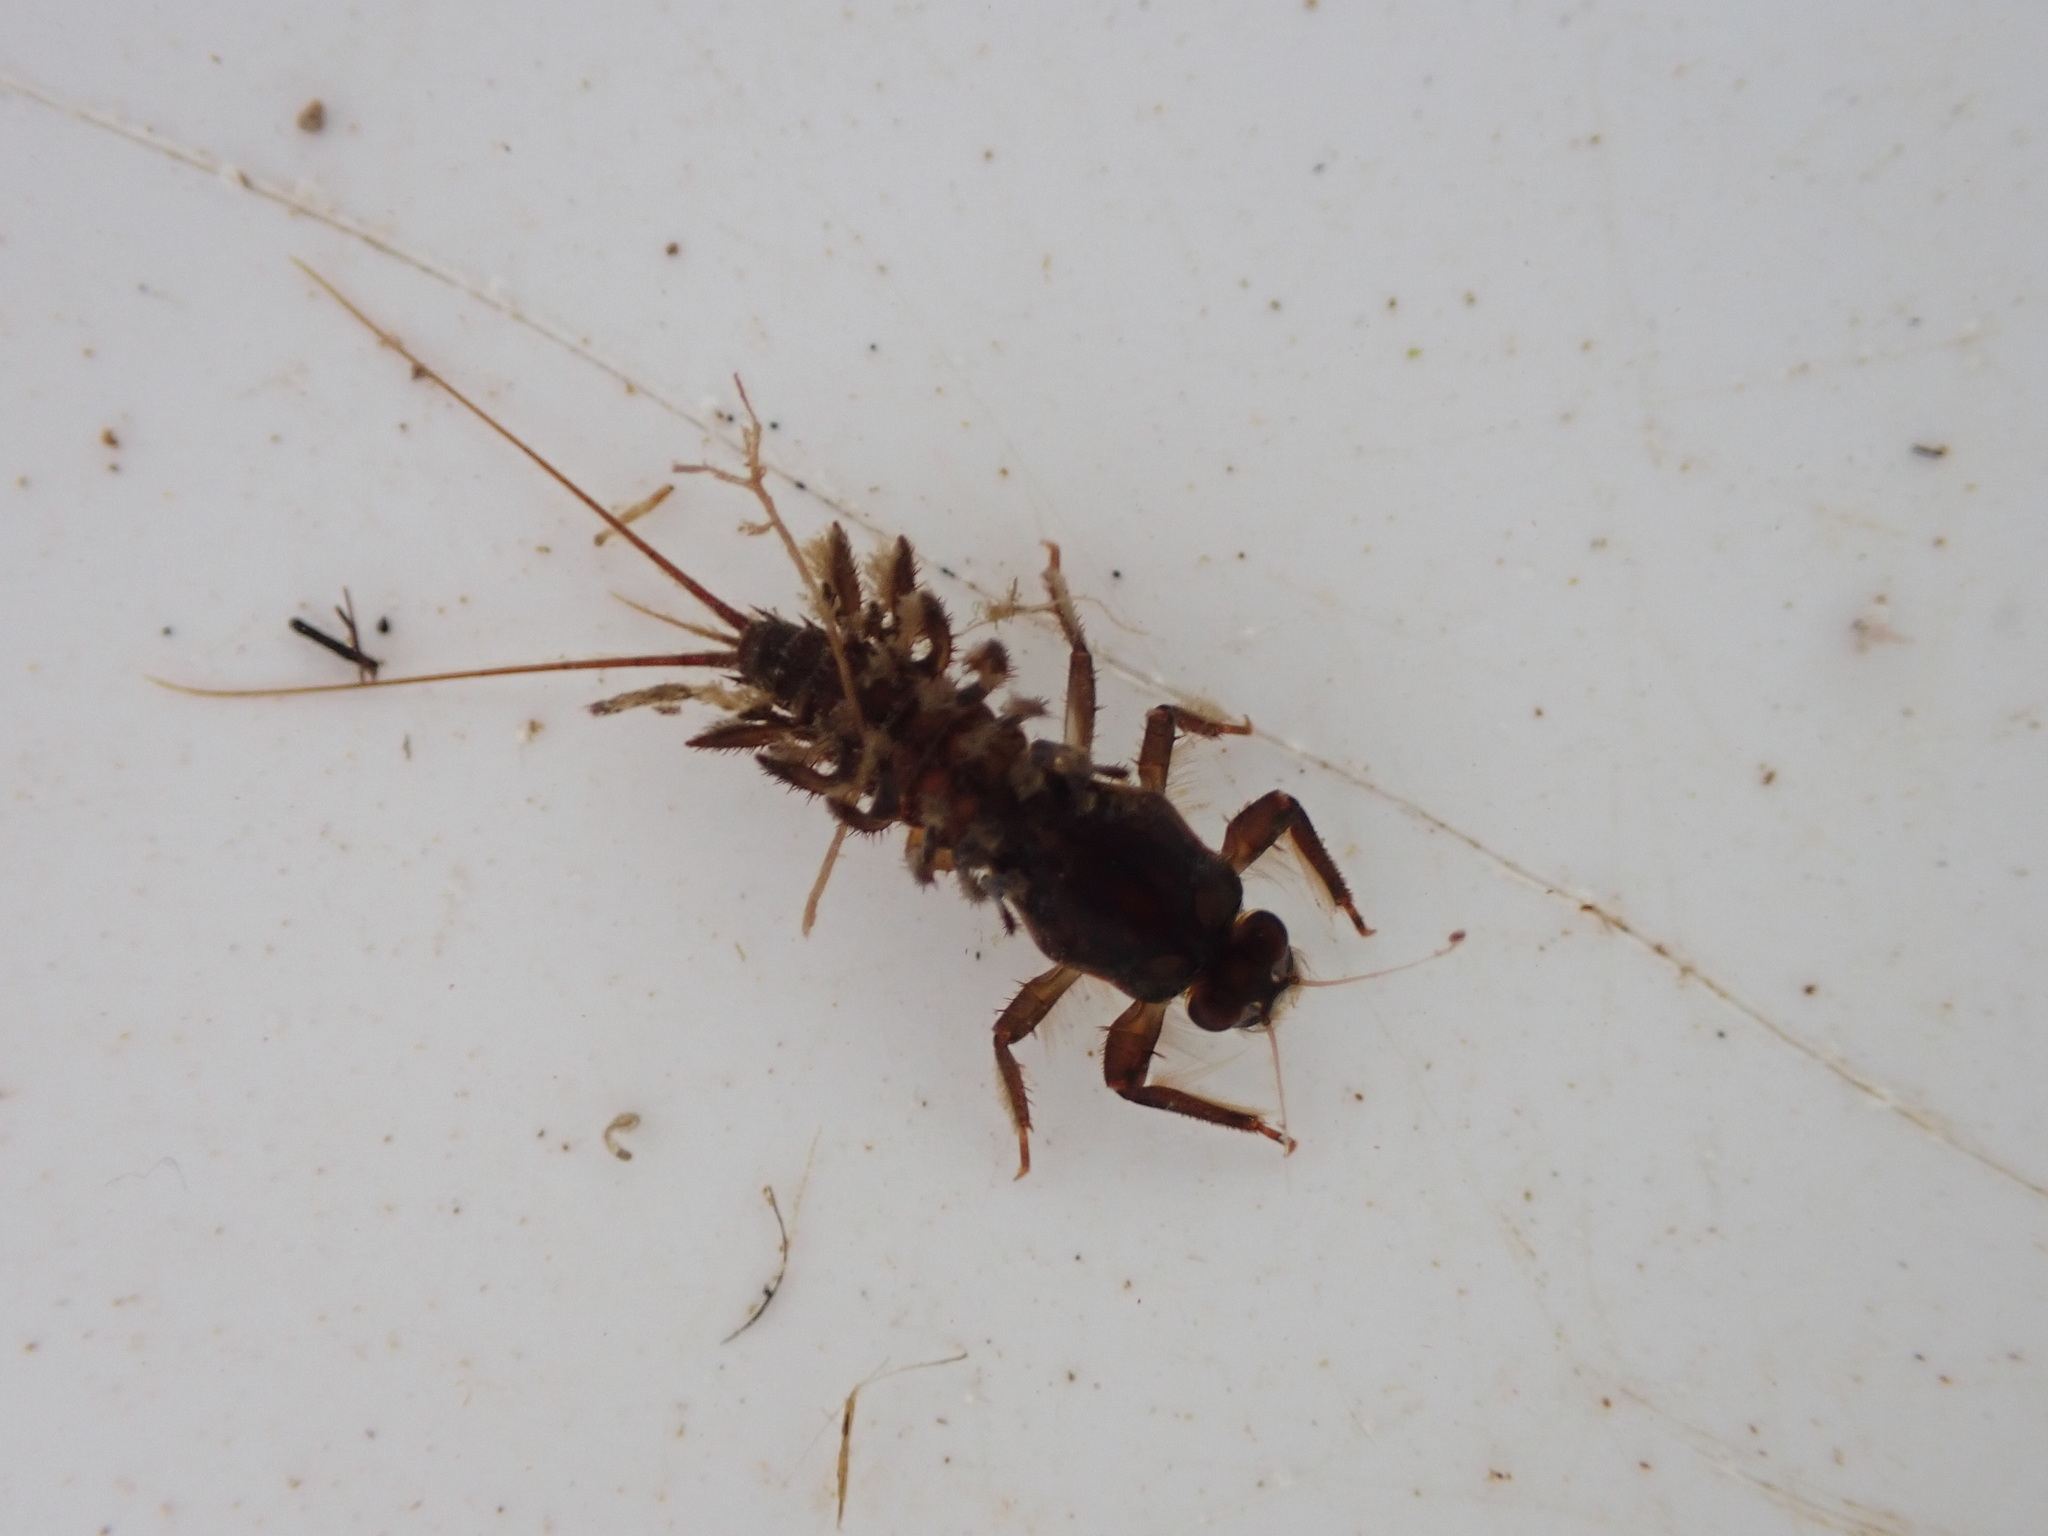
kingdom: Animalia
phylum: Arthropoda
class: Insecta
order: Ephemeroptera
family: Coloburiscidae
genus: Coloburiscus
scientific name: Coloburiscus humeralis
